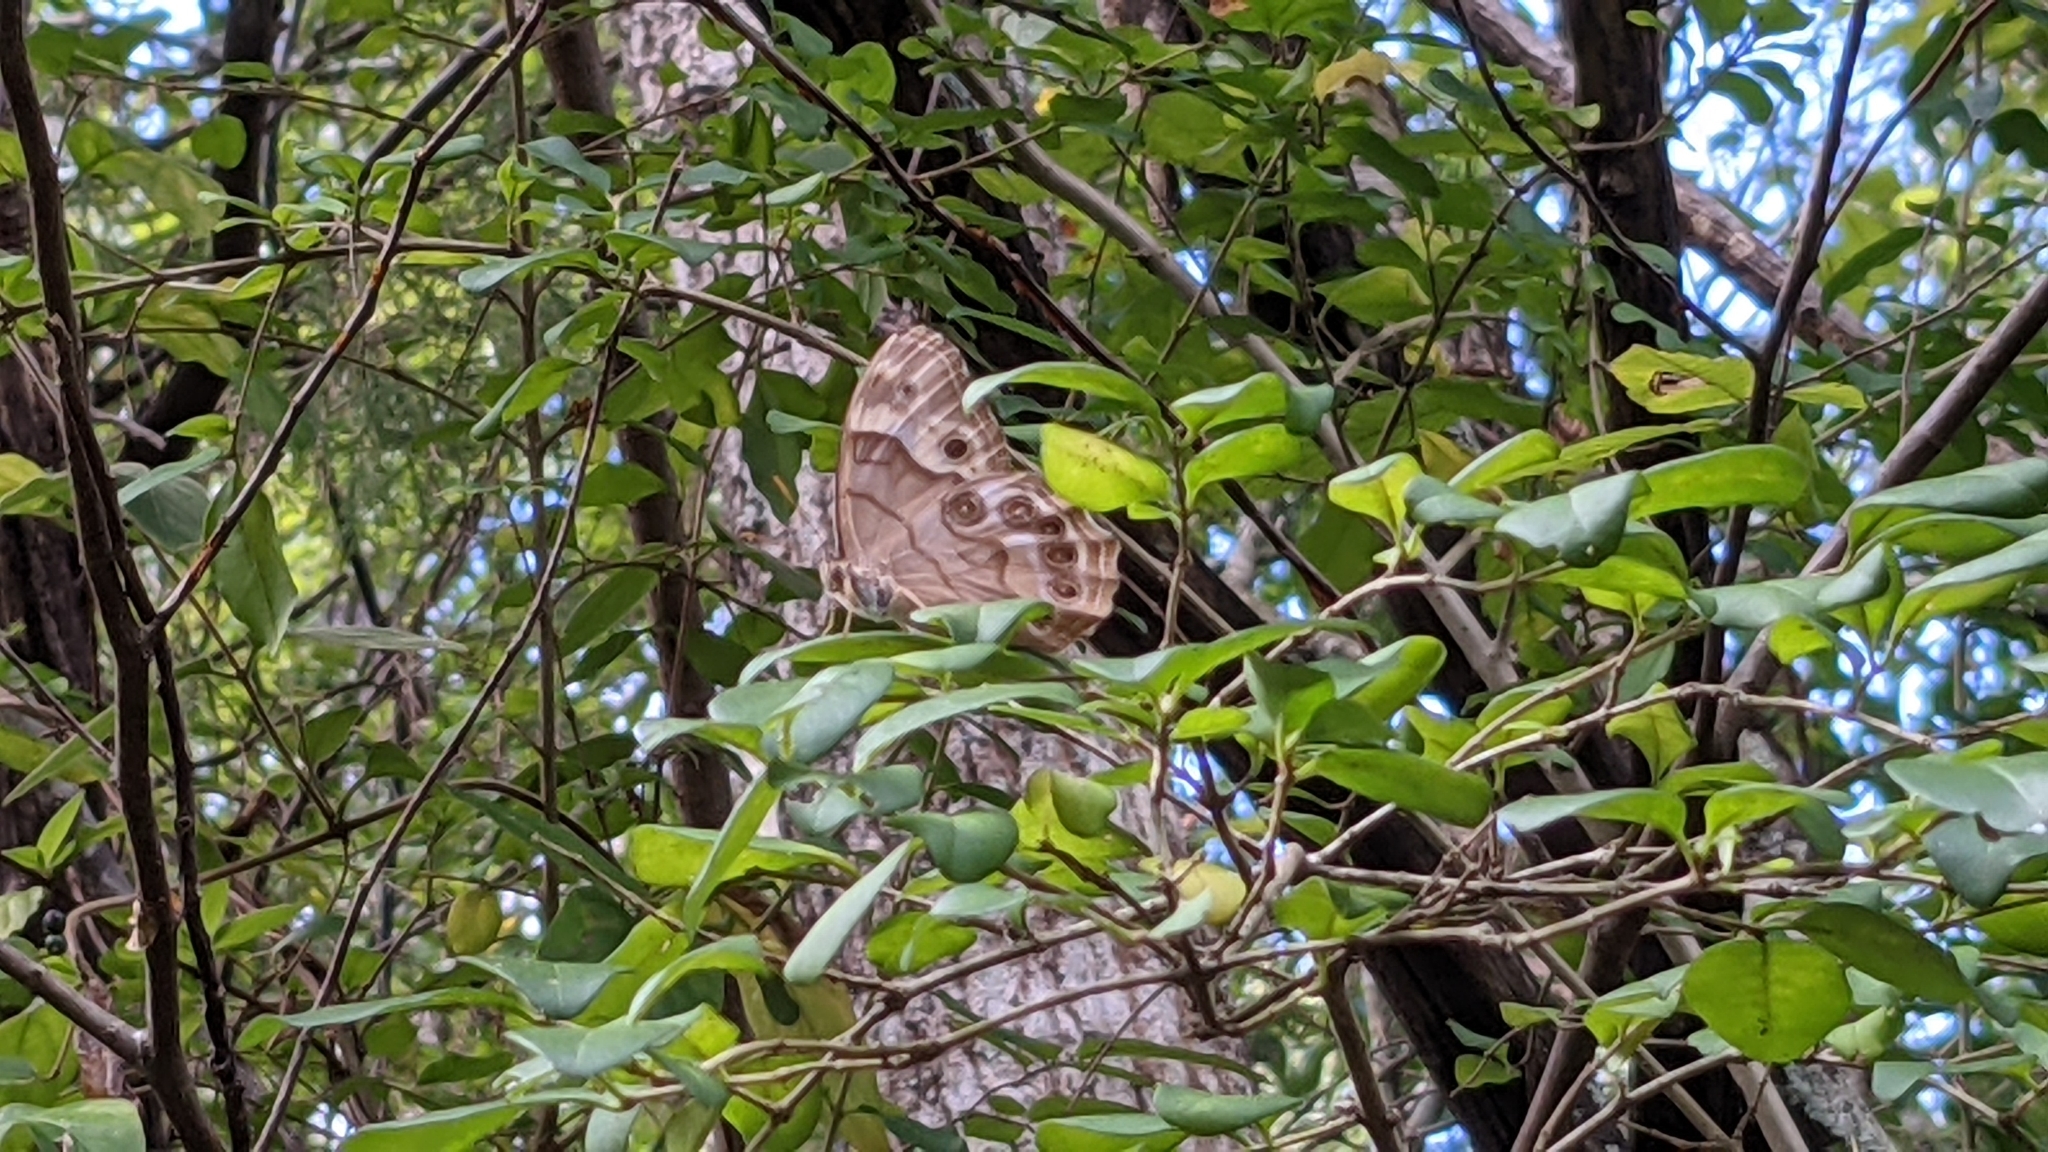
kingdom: Animalia
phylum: Arthropoda
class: Insecta
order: Lepidoptera
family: Nymphalidae
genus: Enodia
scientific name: Enodia portlandia
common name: Southern pearly-eye
